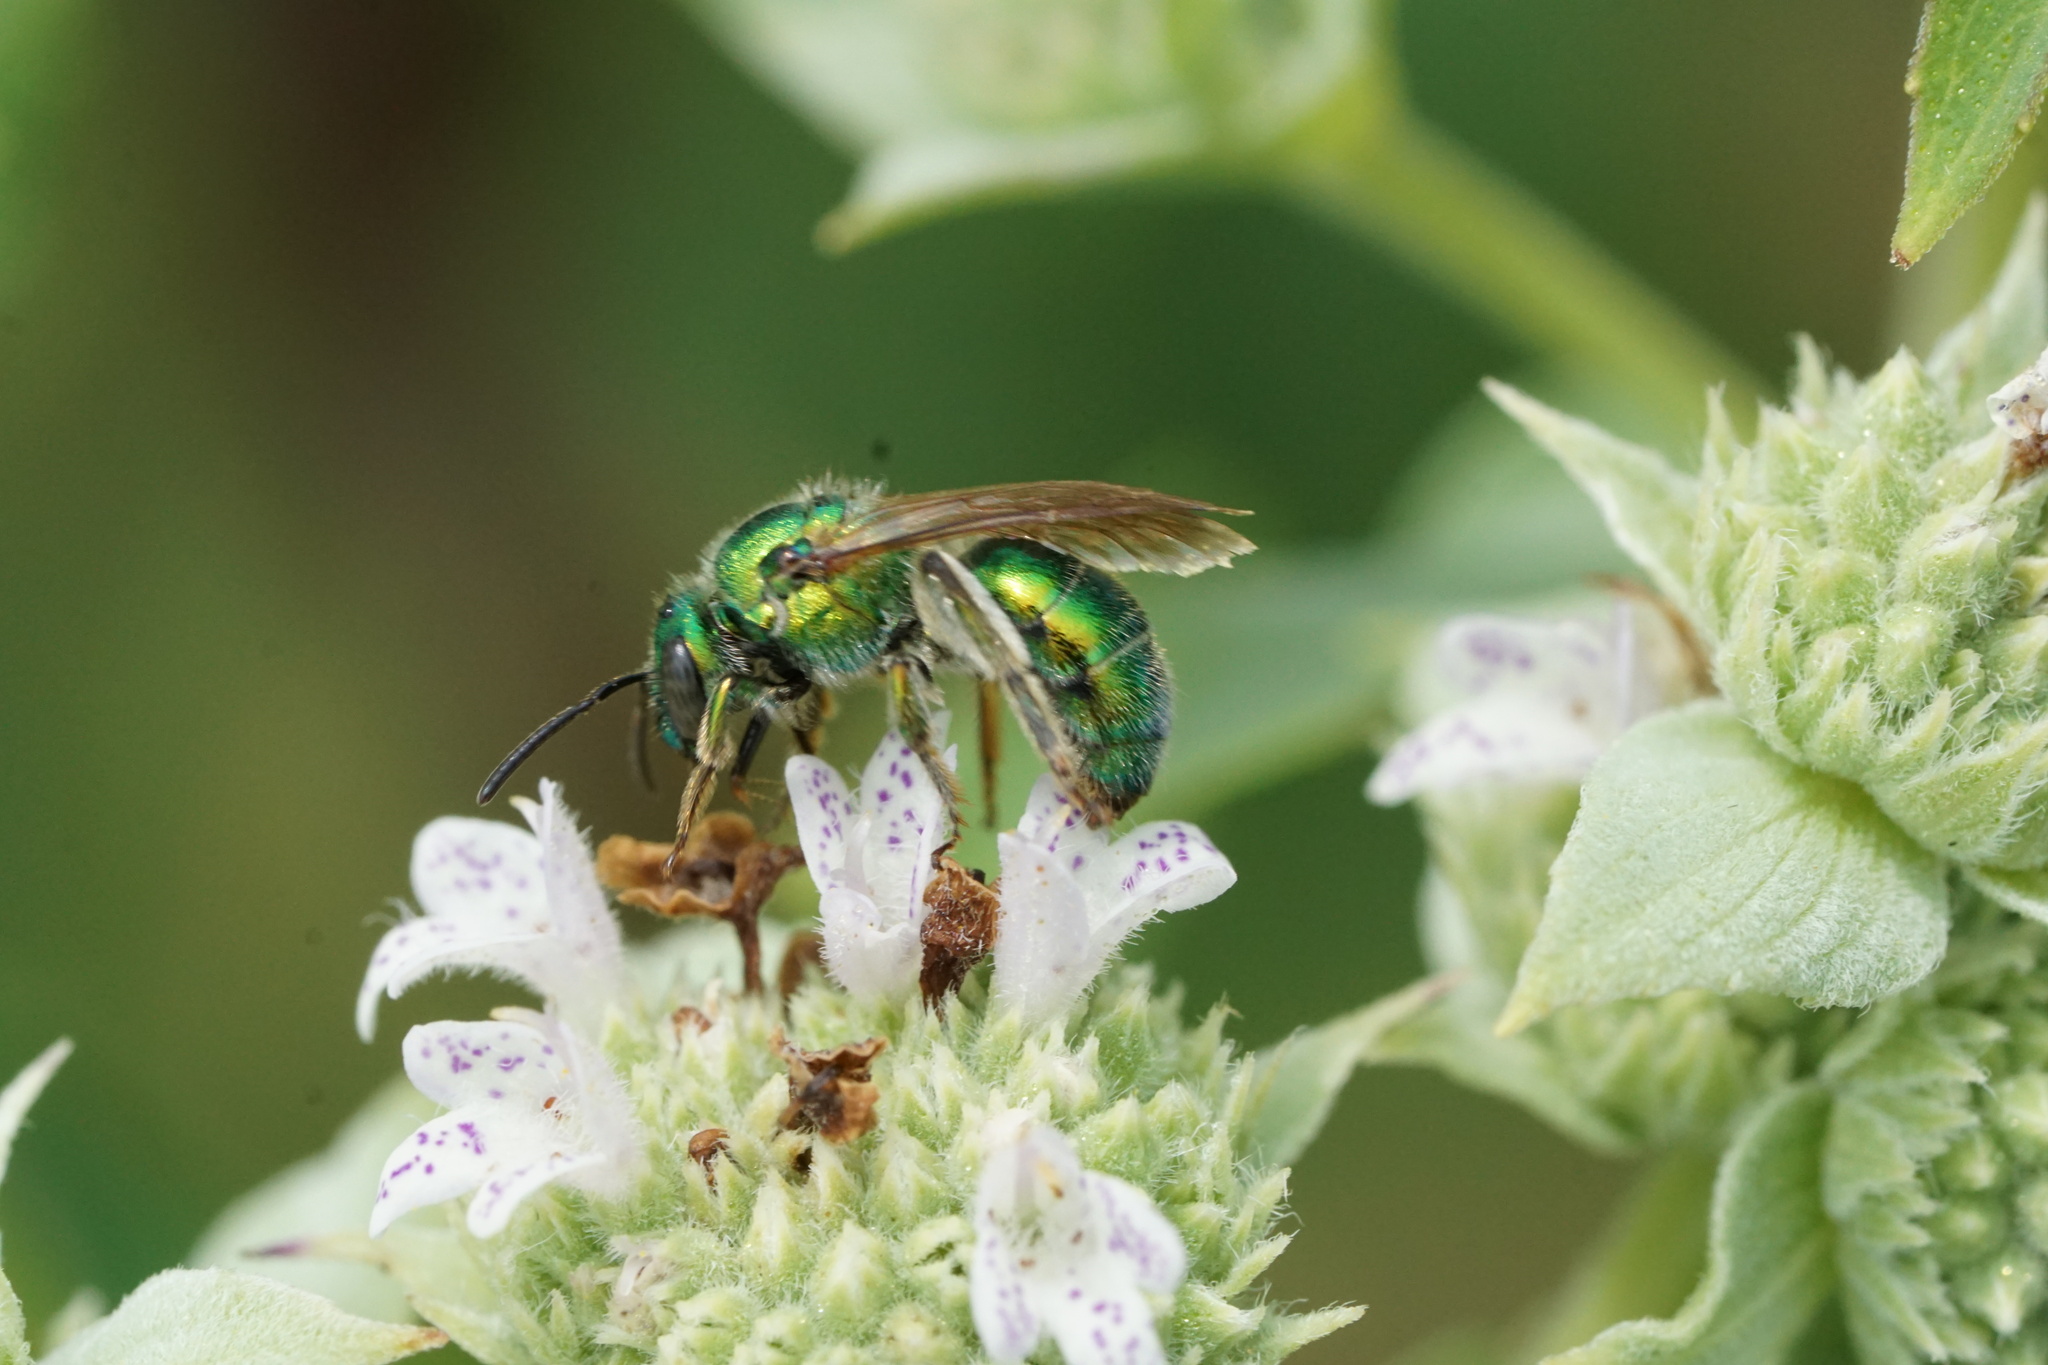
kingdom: Animalia
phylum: Arthropoda
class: Insecta
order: Hymenoptera
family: Halictidae
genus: Augochloropsis
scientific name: Augochloropsis viridula
